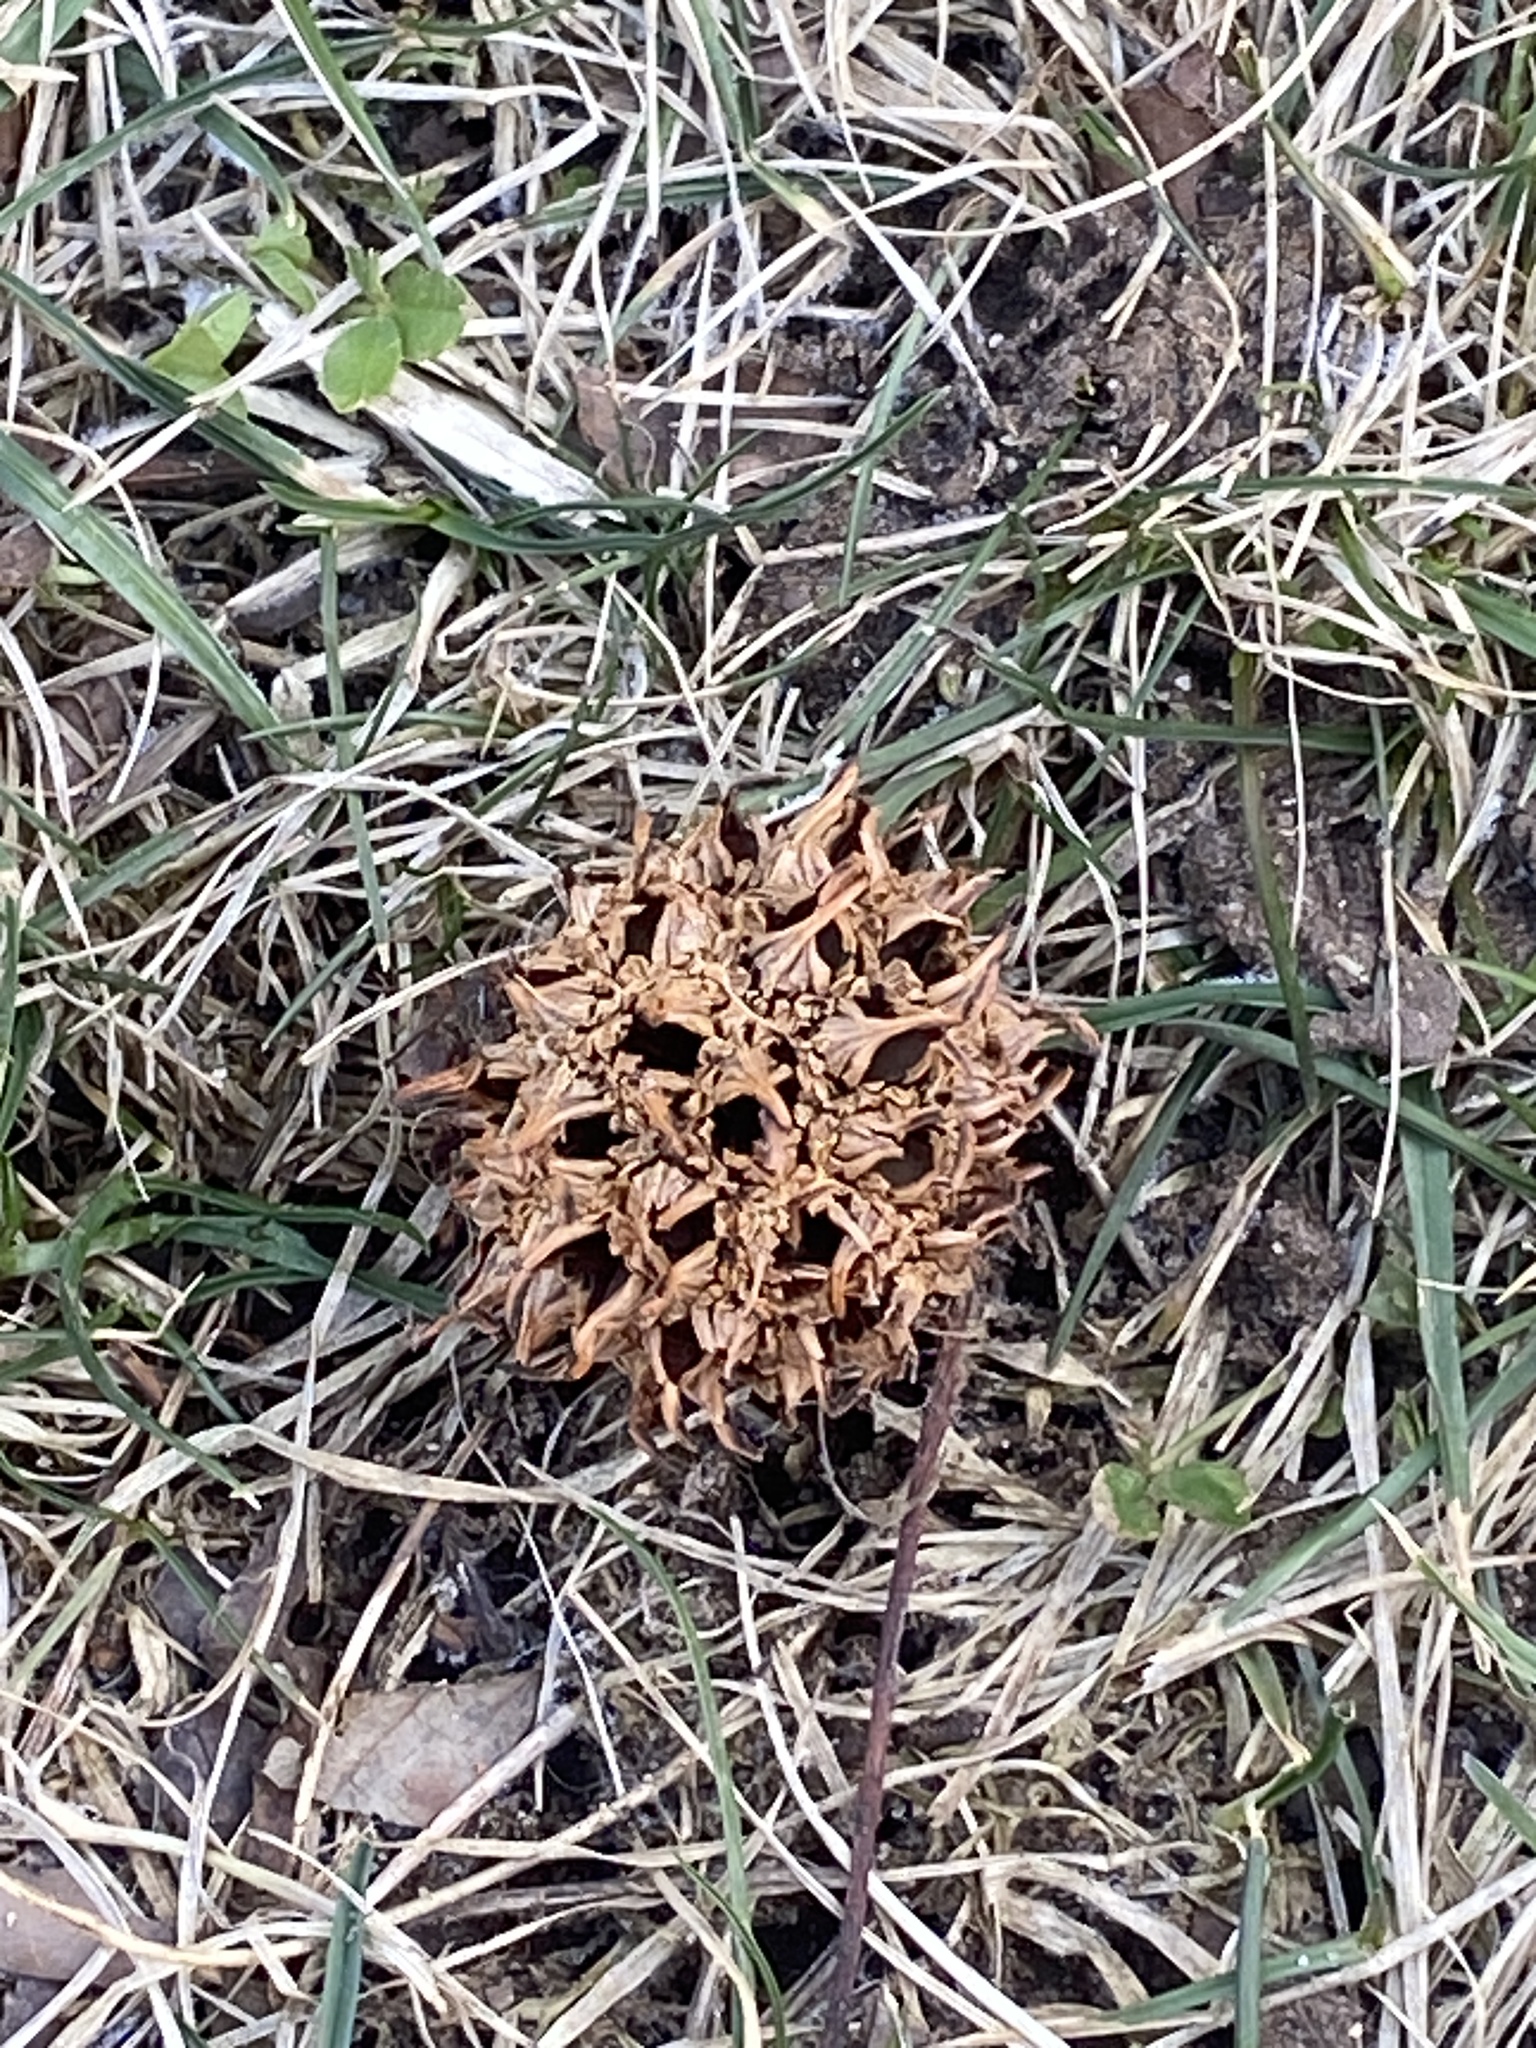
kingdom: Plantae
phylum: Tracheophyta
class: Magnoliopsida
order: Saxifragales
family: Altingiaceae
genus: Liquidambar
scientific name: Liquidambar styraciflua
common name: Sweet gum
